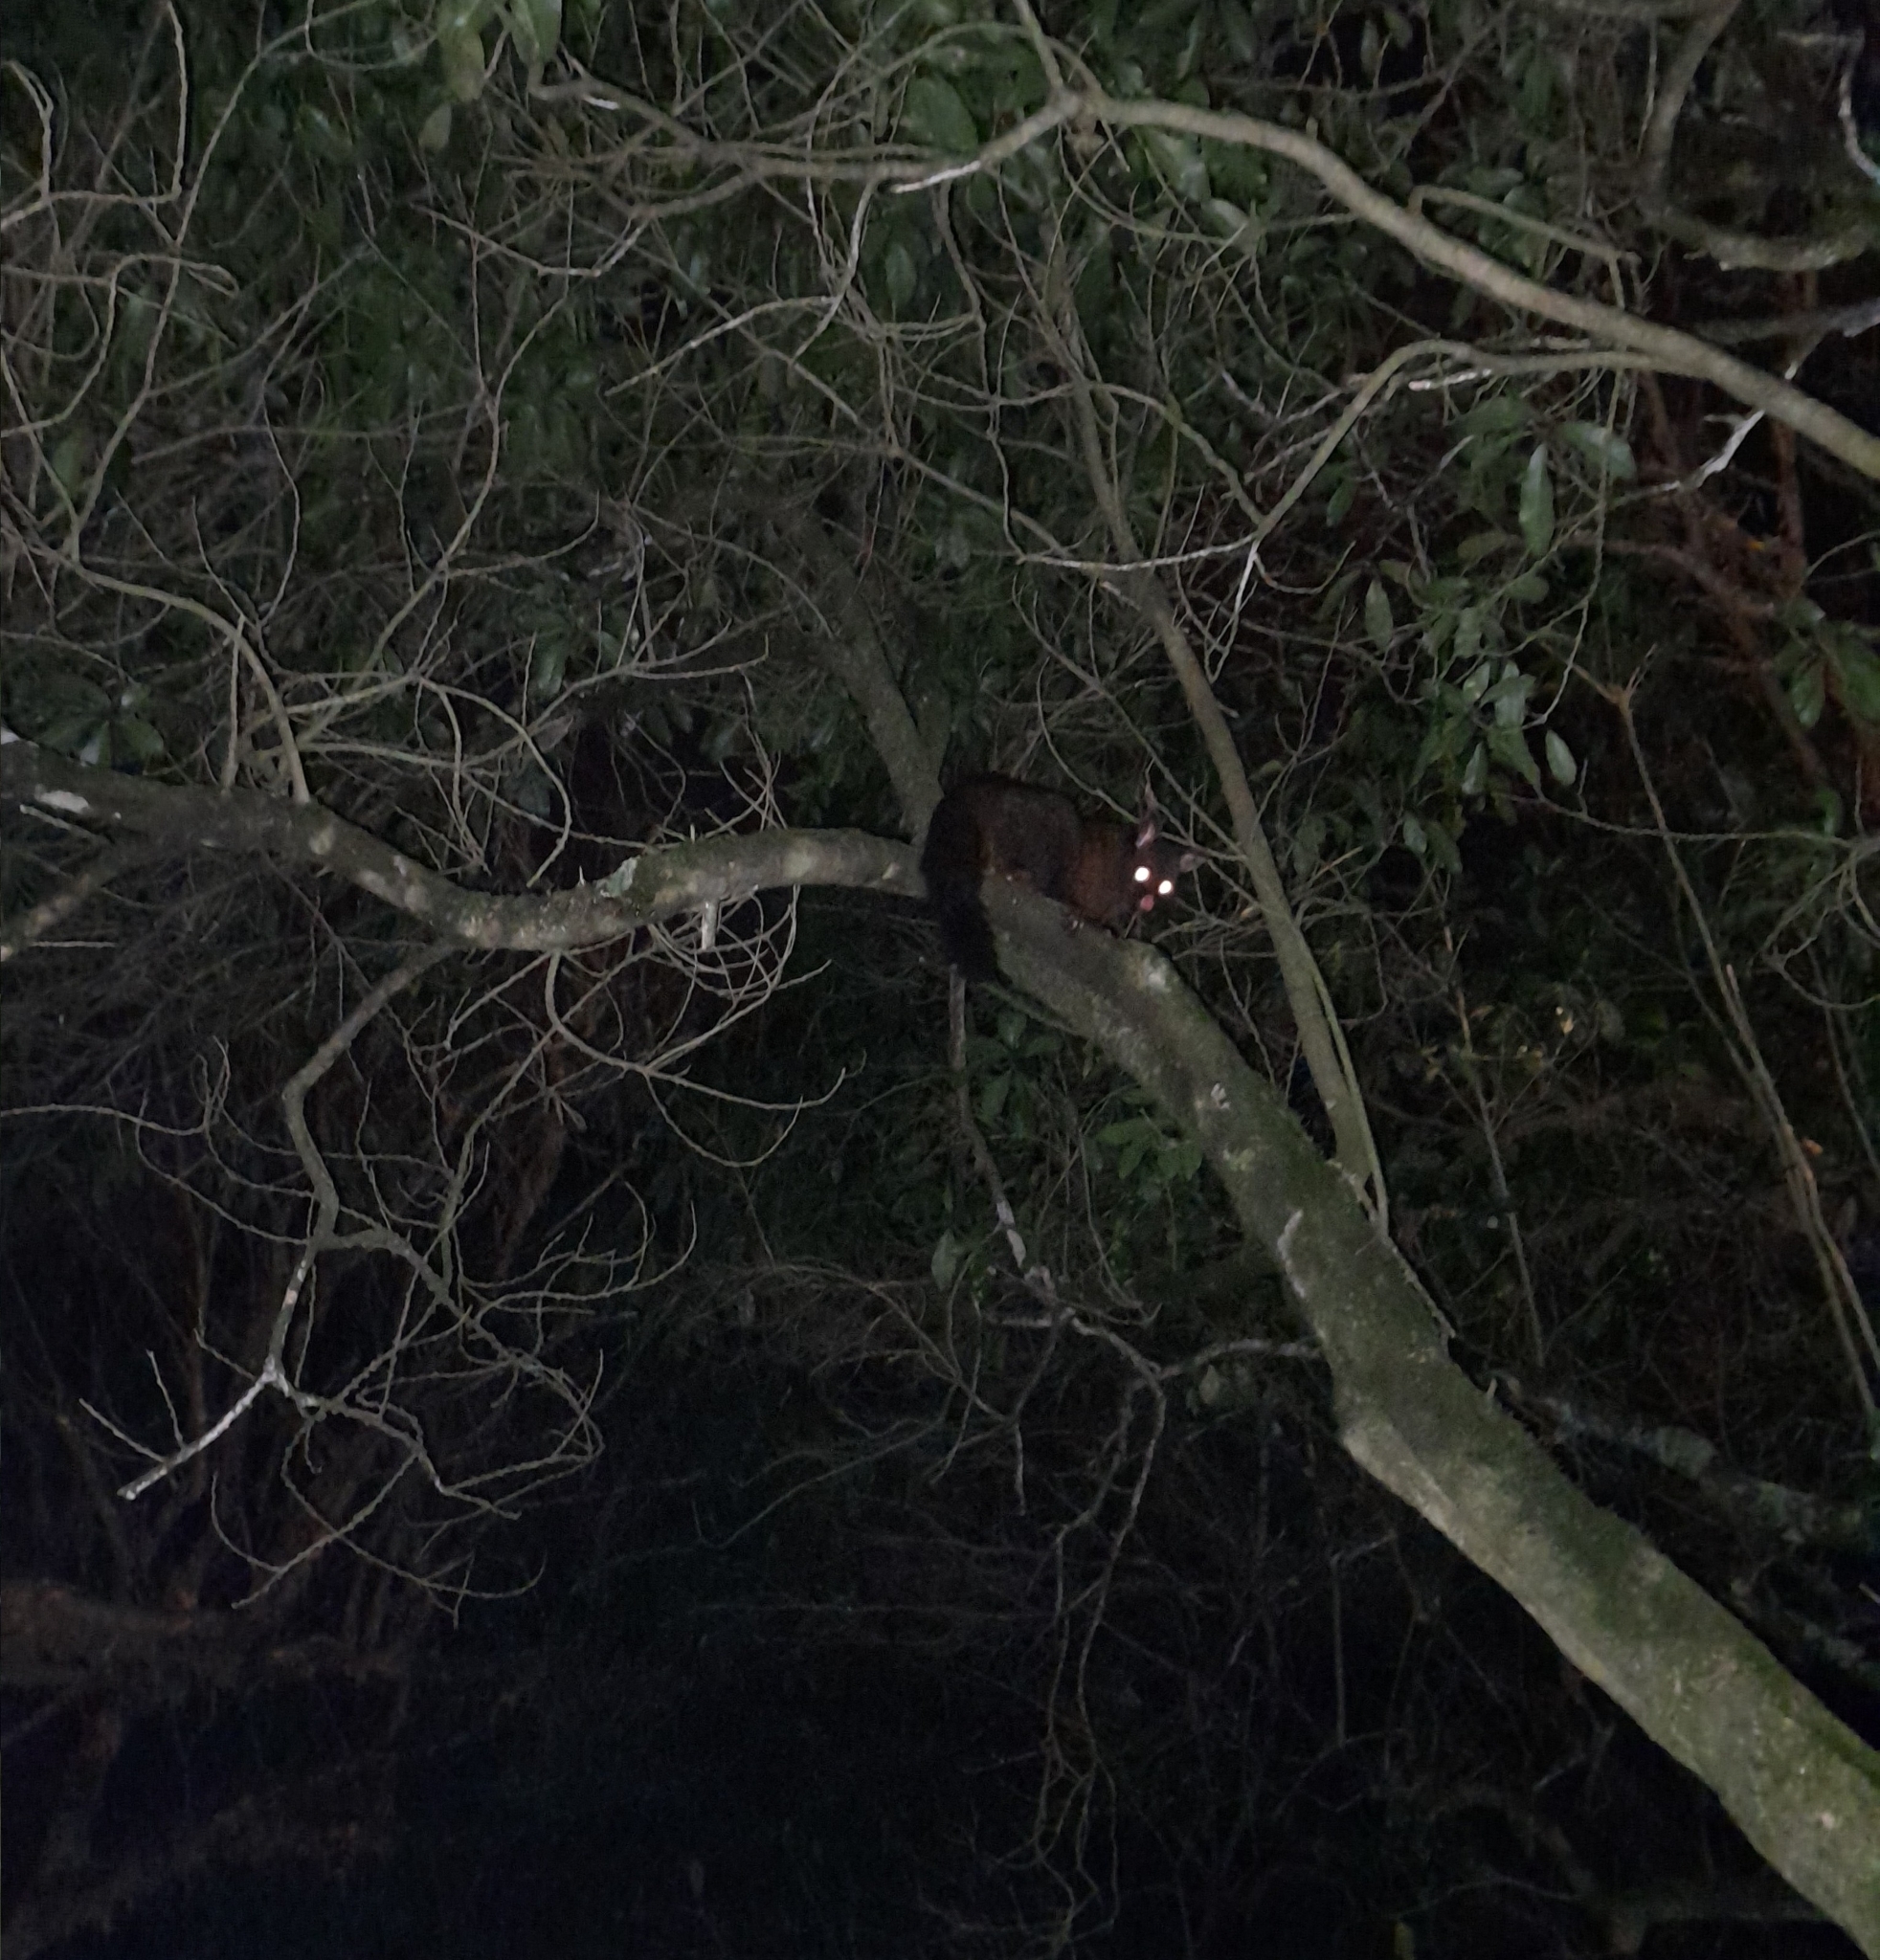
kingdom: Animalia
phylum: Chordata
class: Mammalia
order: Diprotodontia
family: Phalangeridae
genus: Trichosurus
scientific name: Trichosurus vulpecula
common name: Common brushtail
